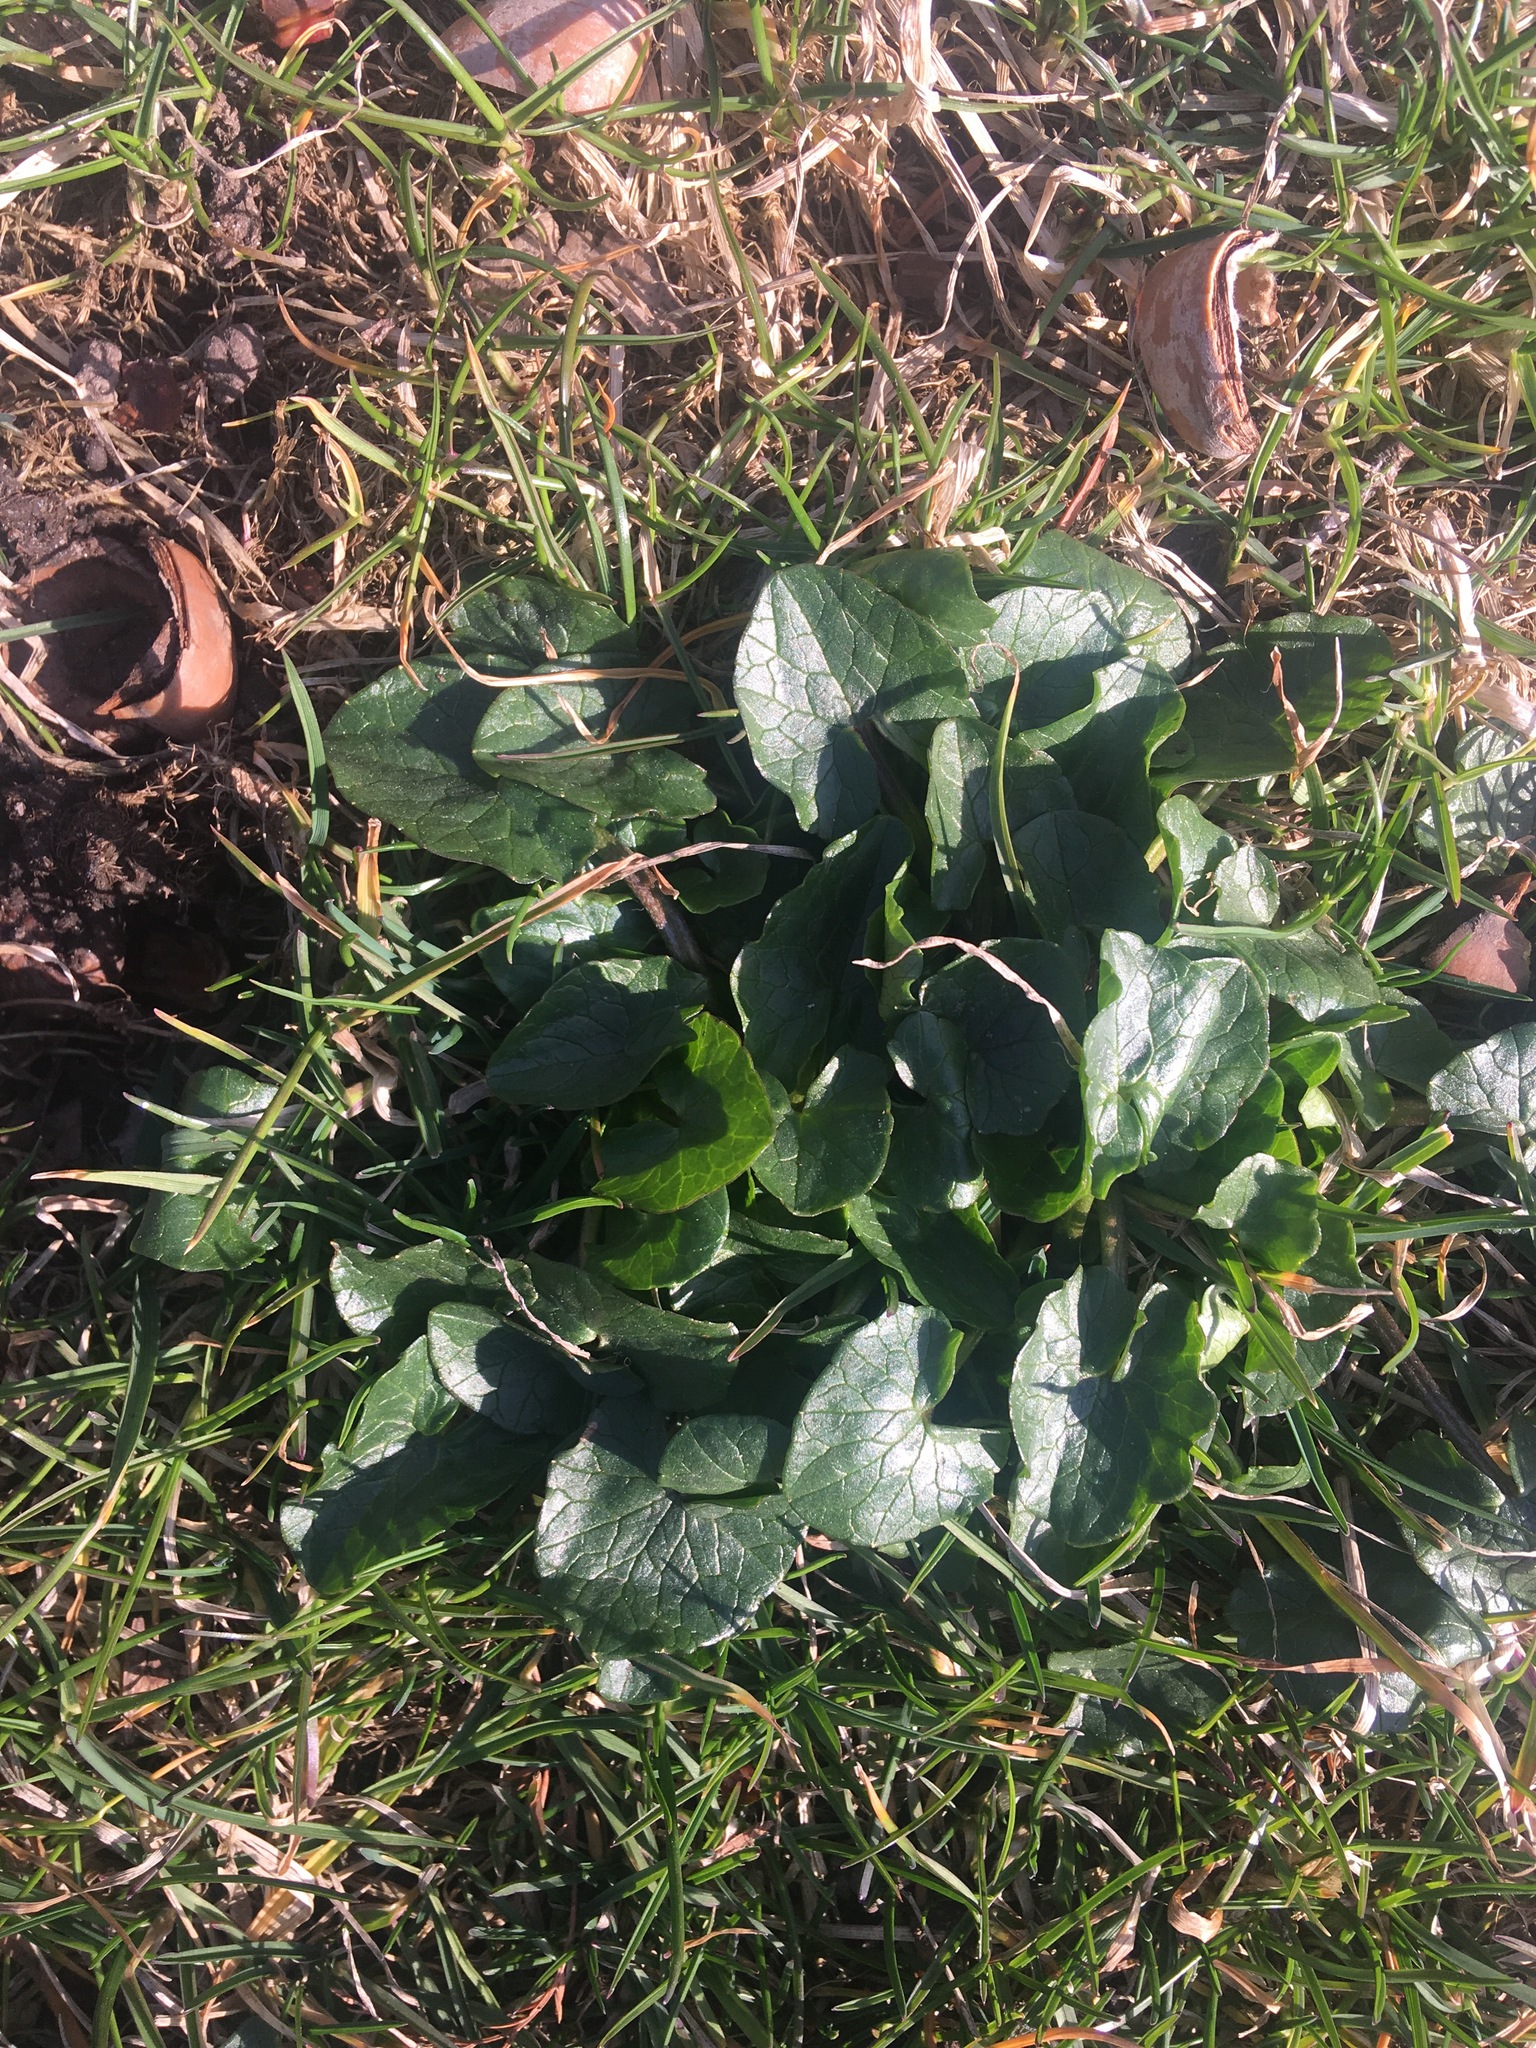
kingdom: Plantae
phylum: Tracheophyta
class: Magnoliopsida
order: Ranunculales
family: Ranunculaceae
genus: Ficaria
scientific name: Ficaria verna
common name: Lesser celandine
